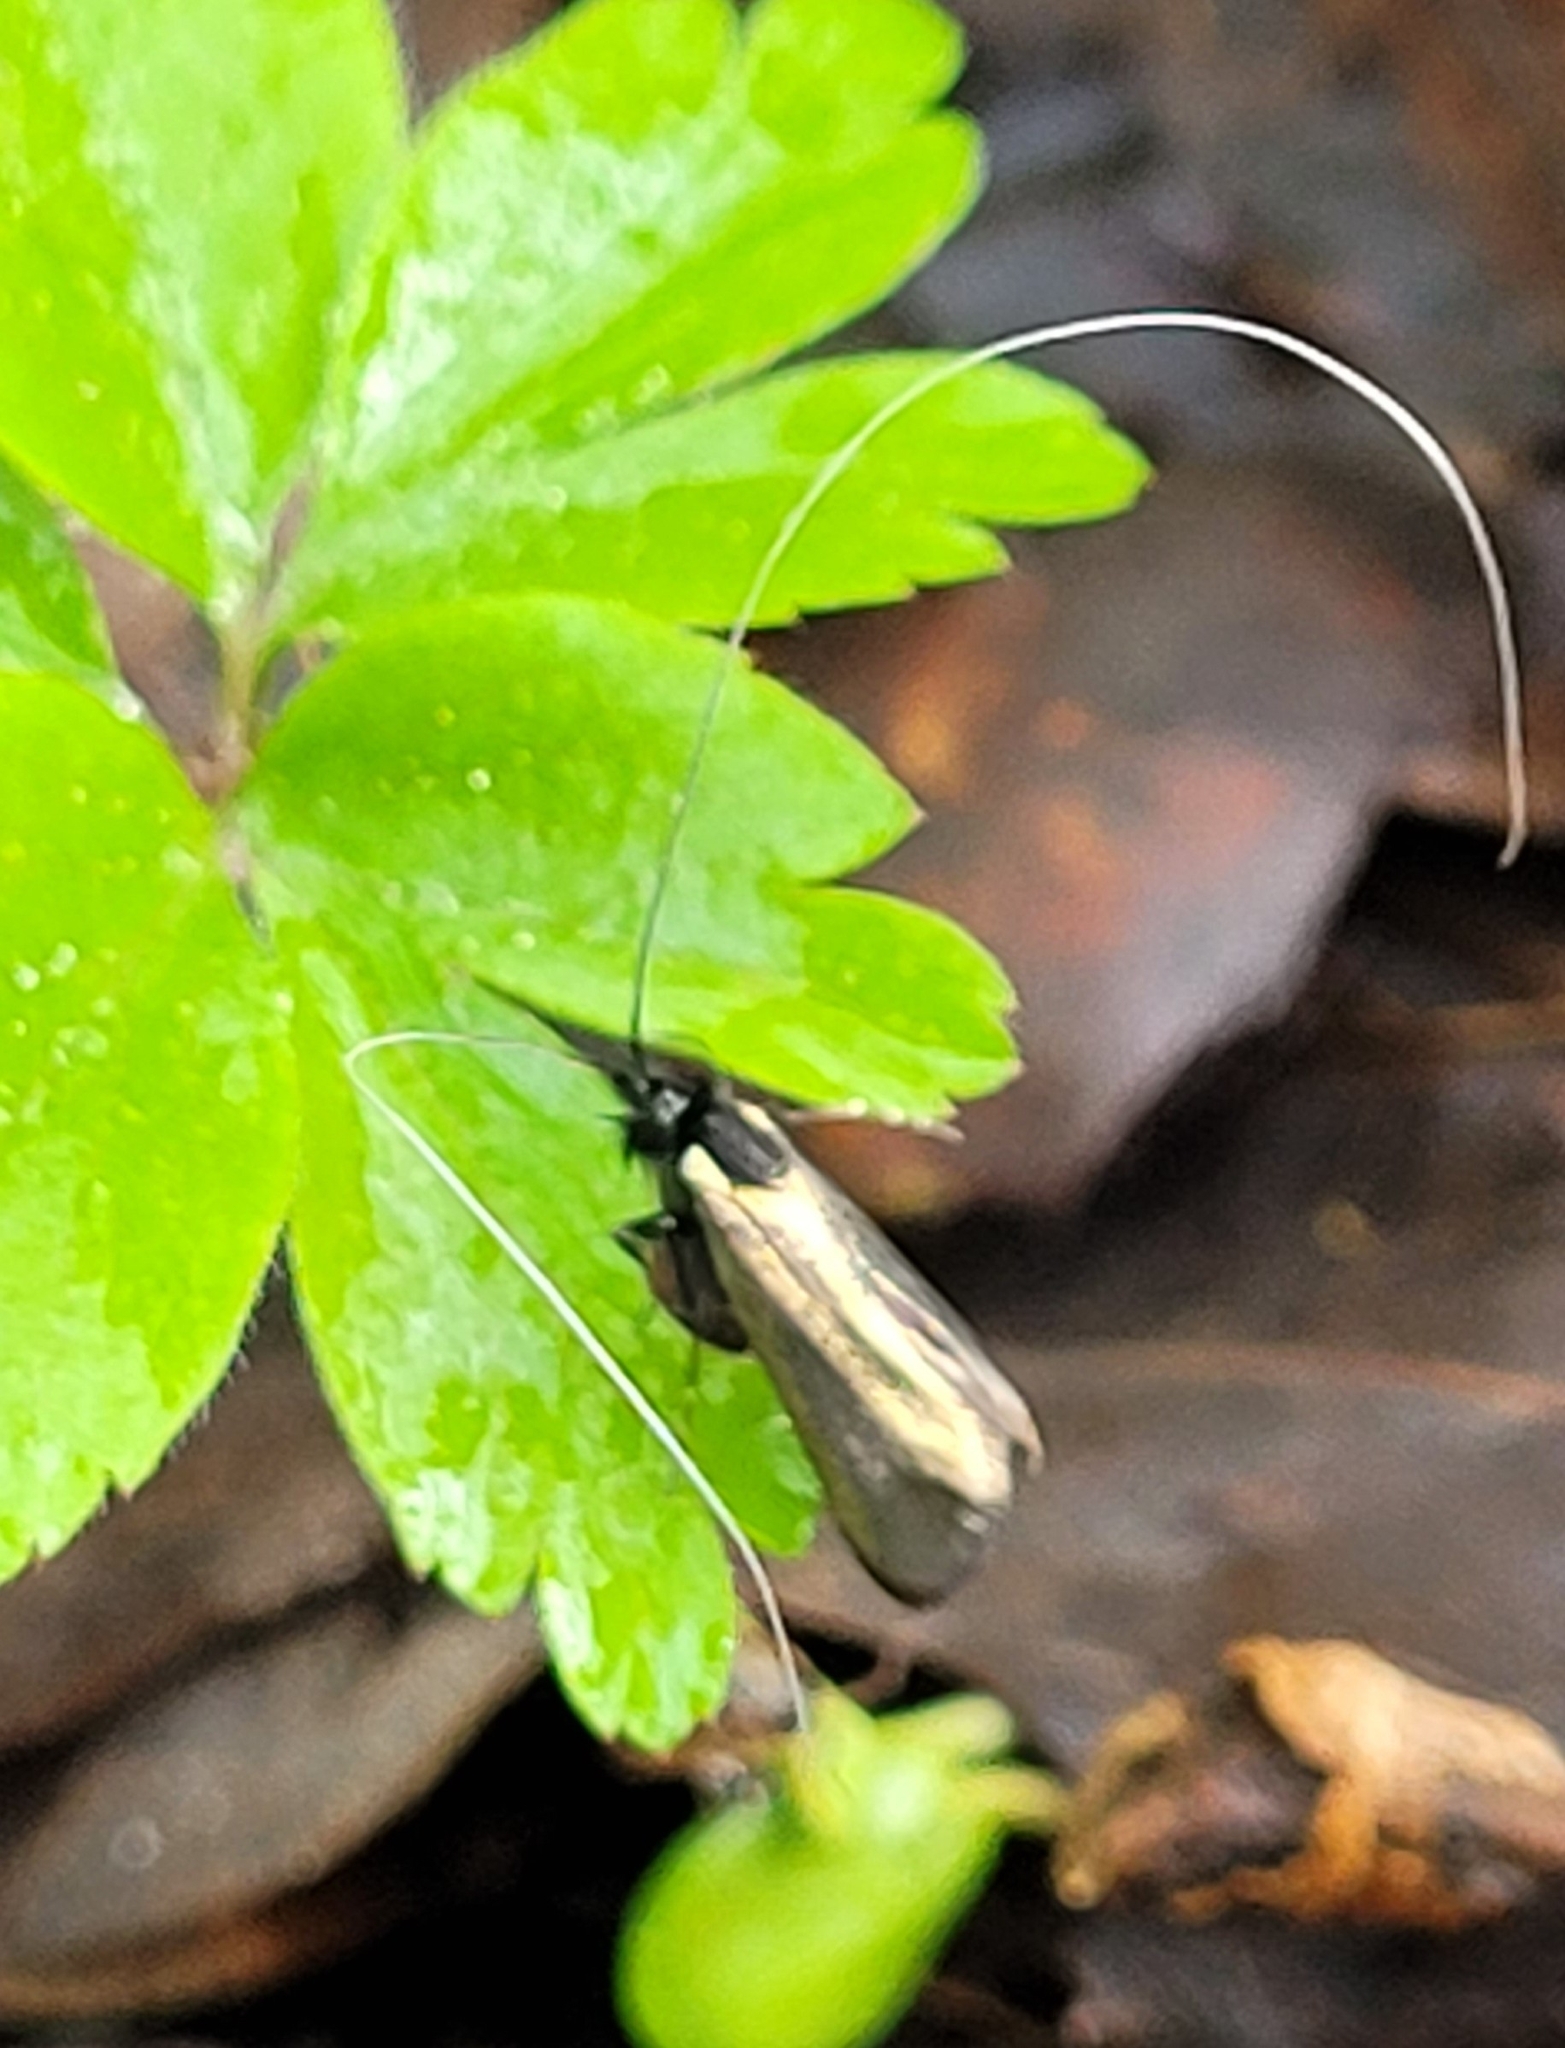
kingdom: Animalia
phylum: Arthropoda
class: Insecta
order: Lepidoptera
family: Adelidae
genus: Adela
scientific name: Adela viridella
